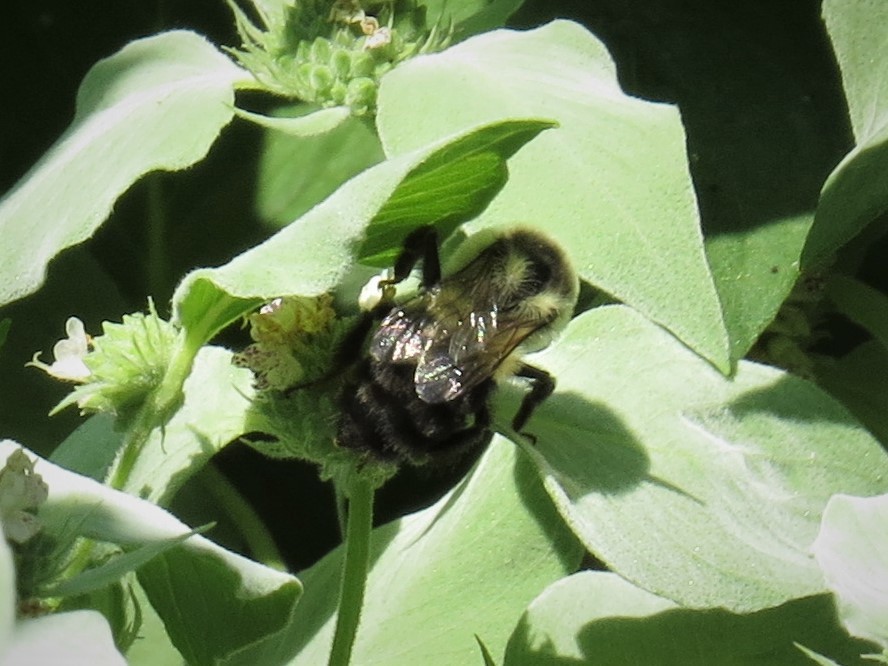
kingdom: Animalia
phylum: Arthropoda
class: Insecta
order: Hymenoptera
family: Apidae
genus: Bombus
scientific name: Bombus impatiens
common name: Common eastern bumble bee
